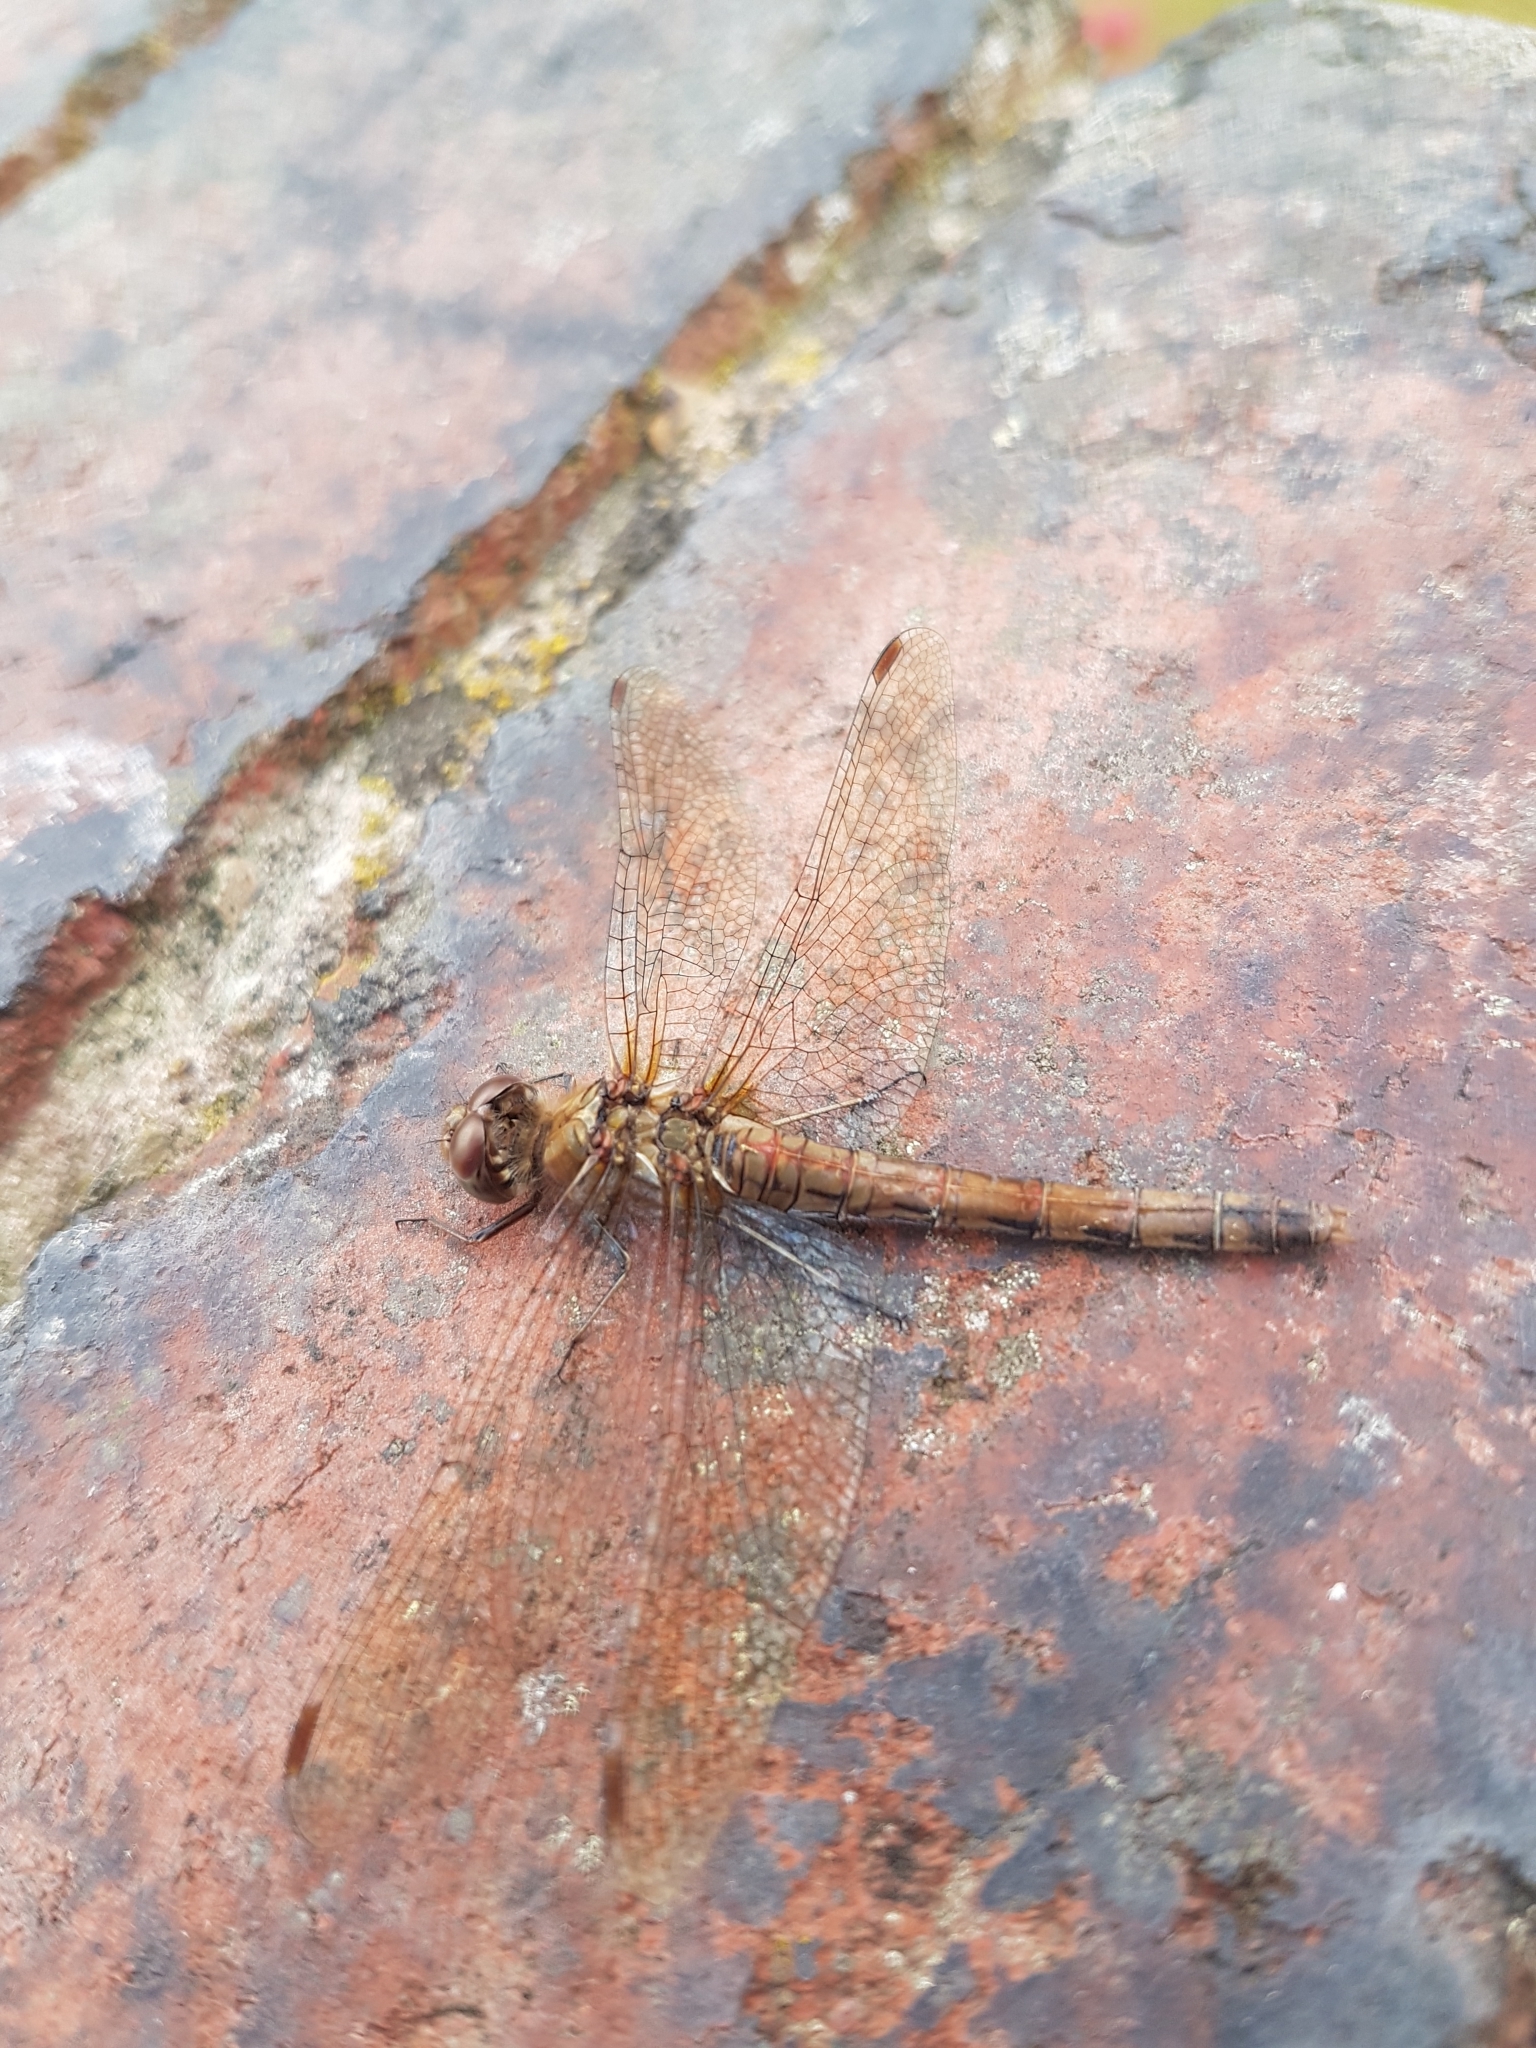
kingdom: Animalia
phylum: Arthropoda
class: Insecta
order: Odonata
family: Libellulidae
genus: Sympetrum
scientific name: Sympetrum striolatum
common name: Common darter
